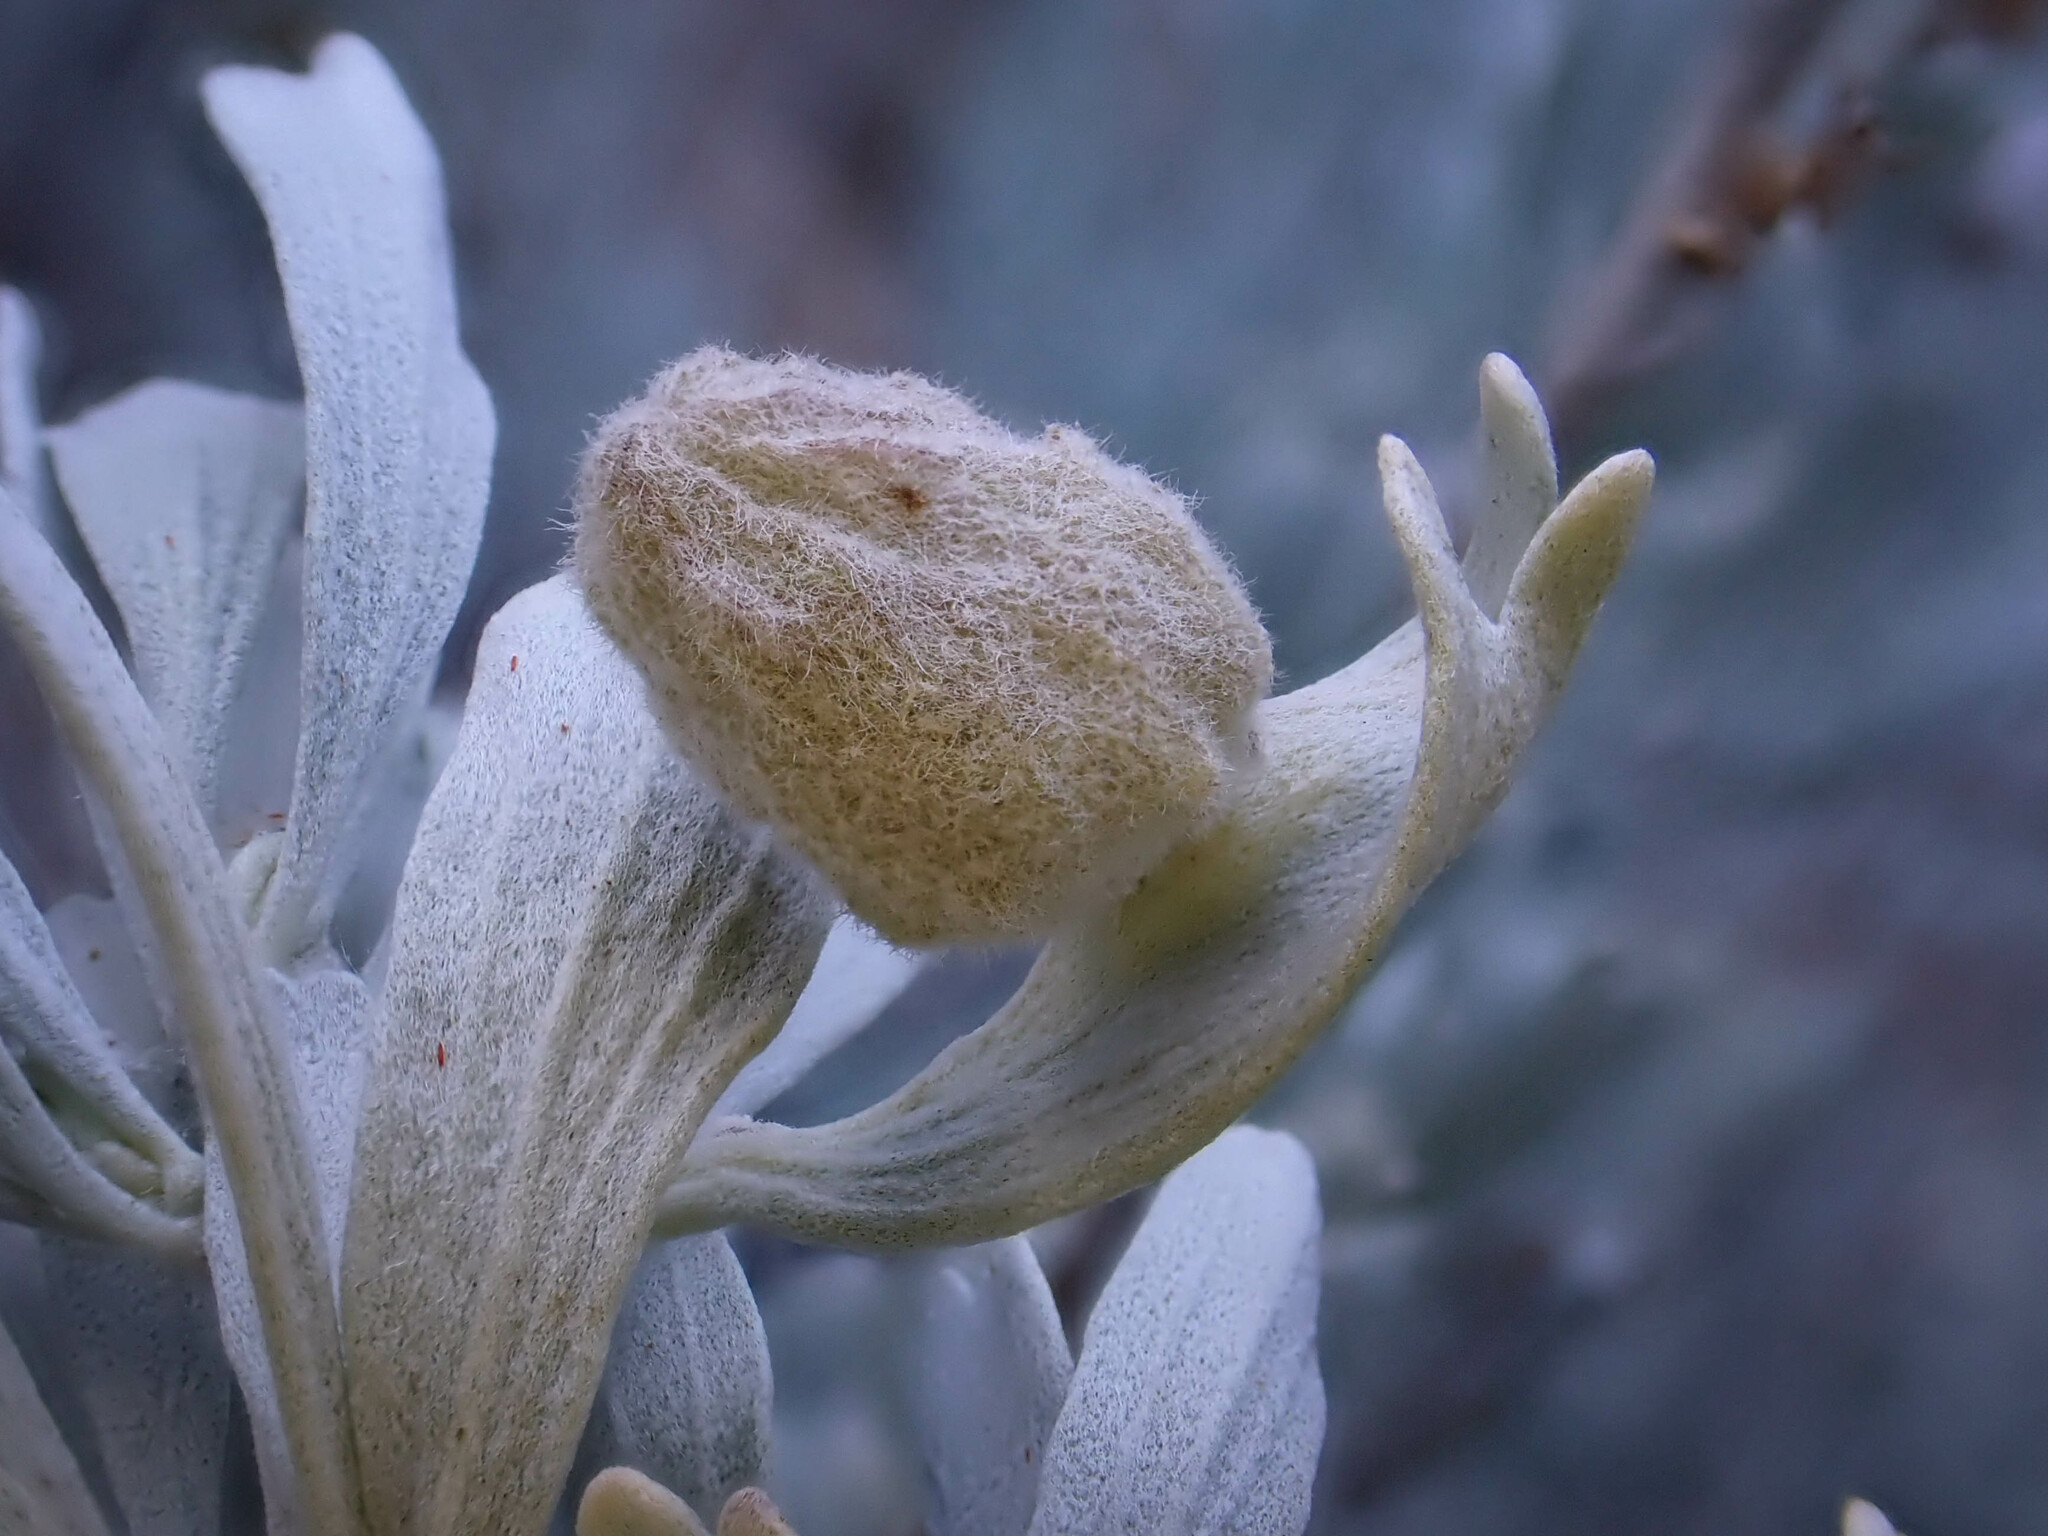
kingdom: Animalia
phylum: Arthropoda
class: Insecta
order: Diptera
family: Cecidomyiidae
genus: Rhopalomyia
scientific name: Rhopalomyia rugosa
